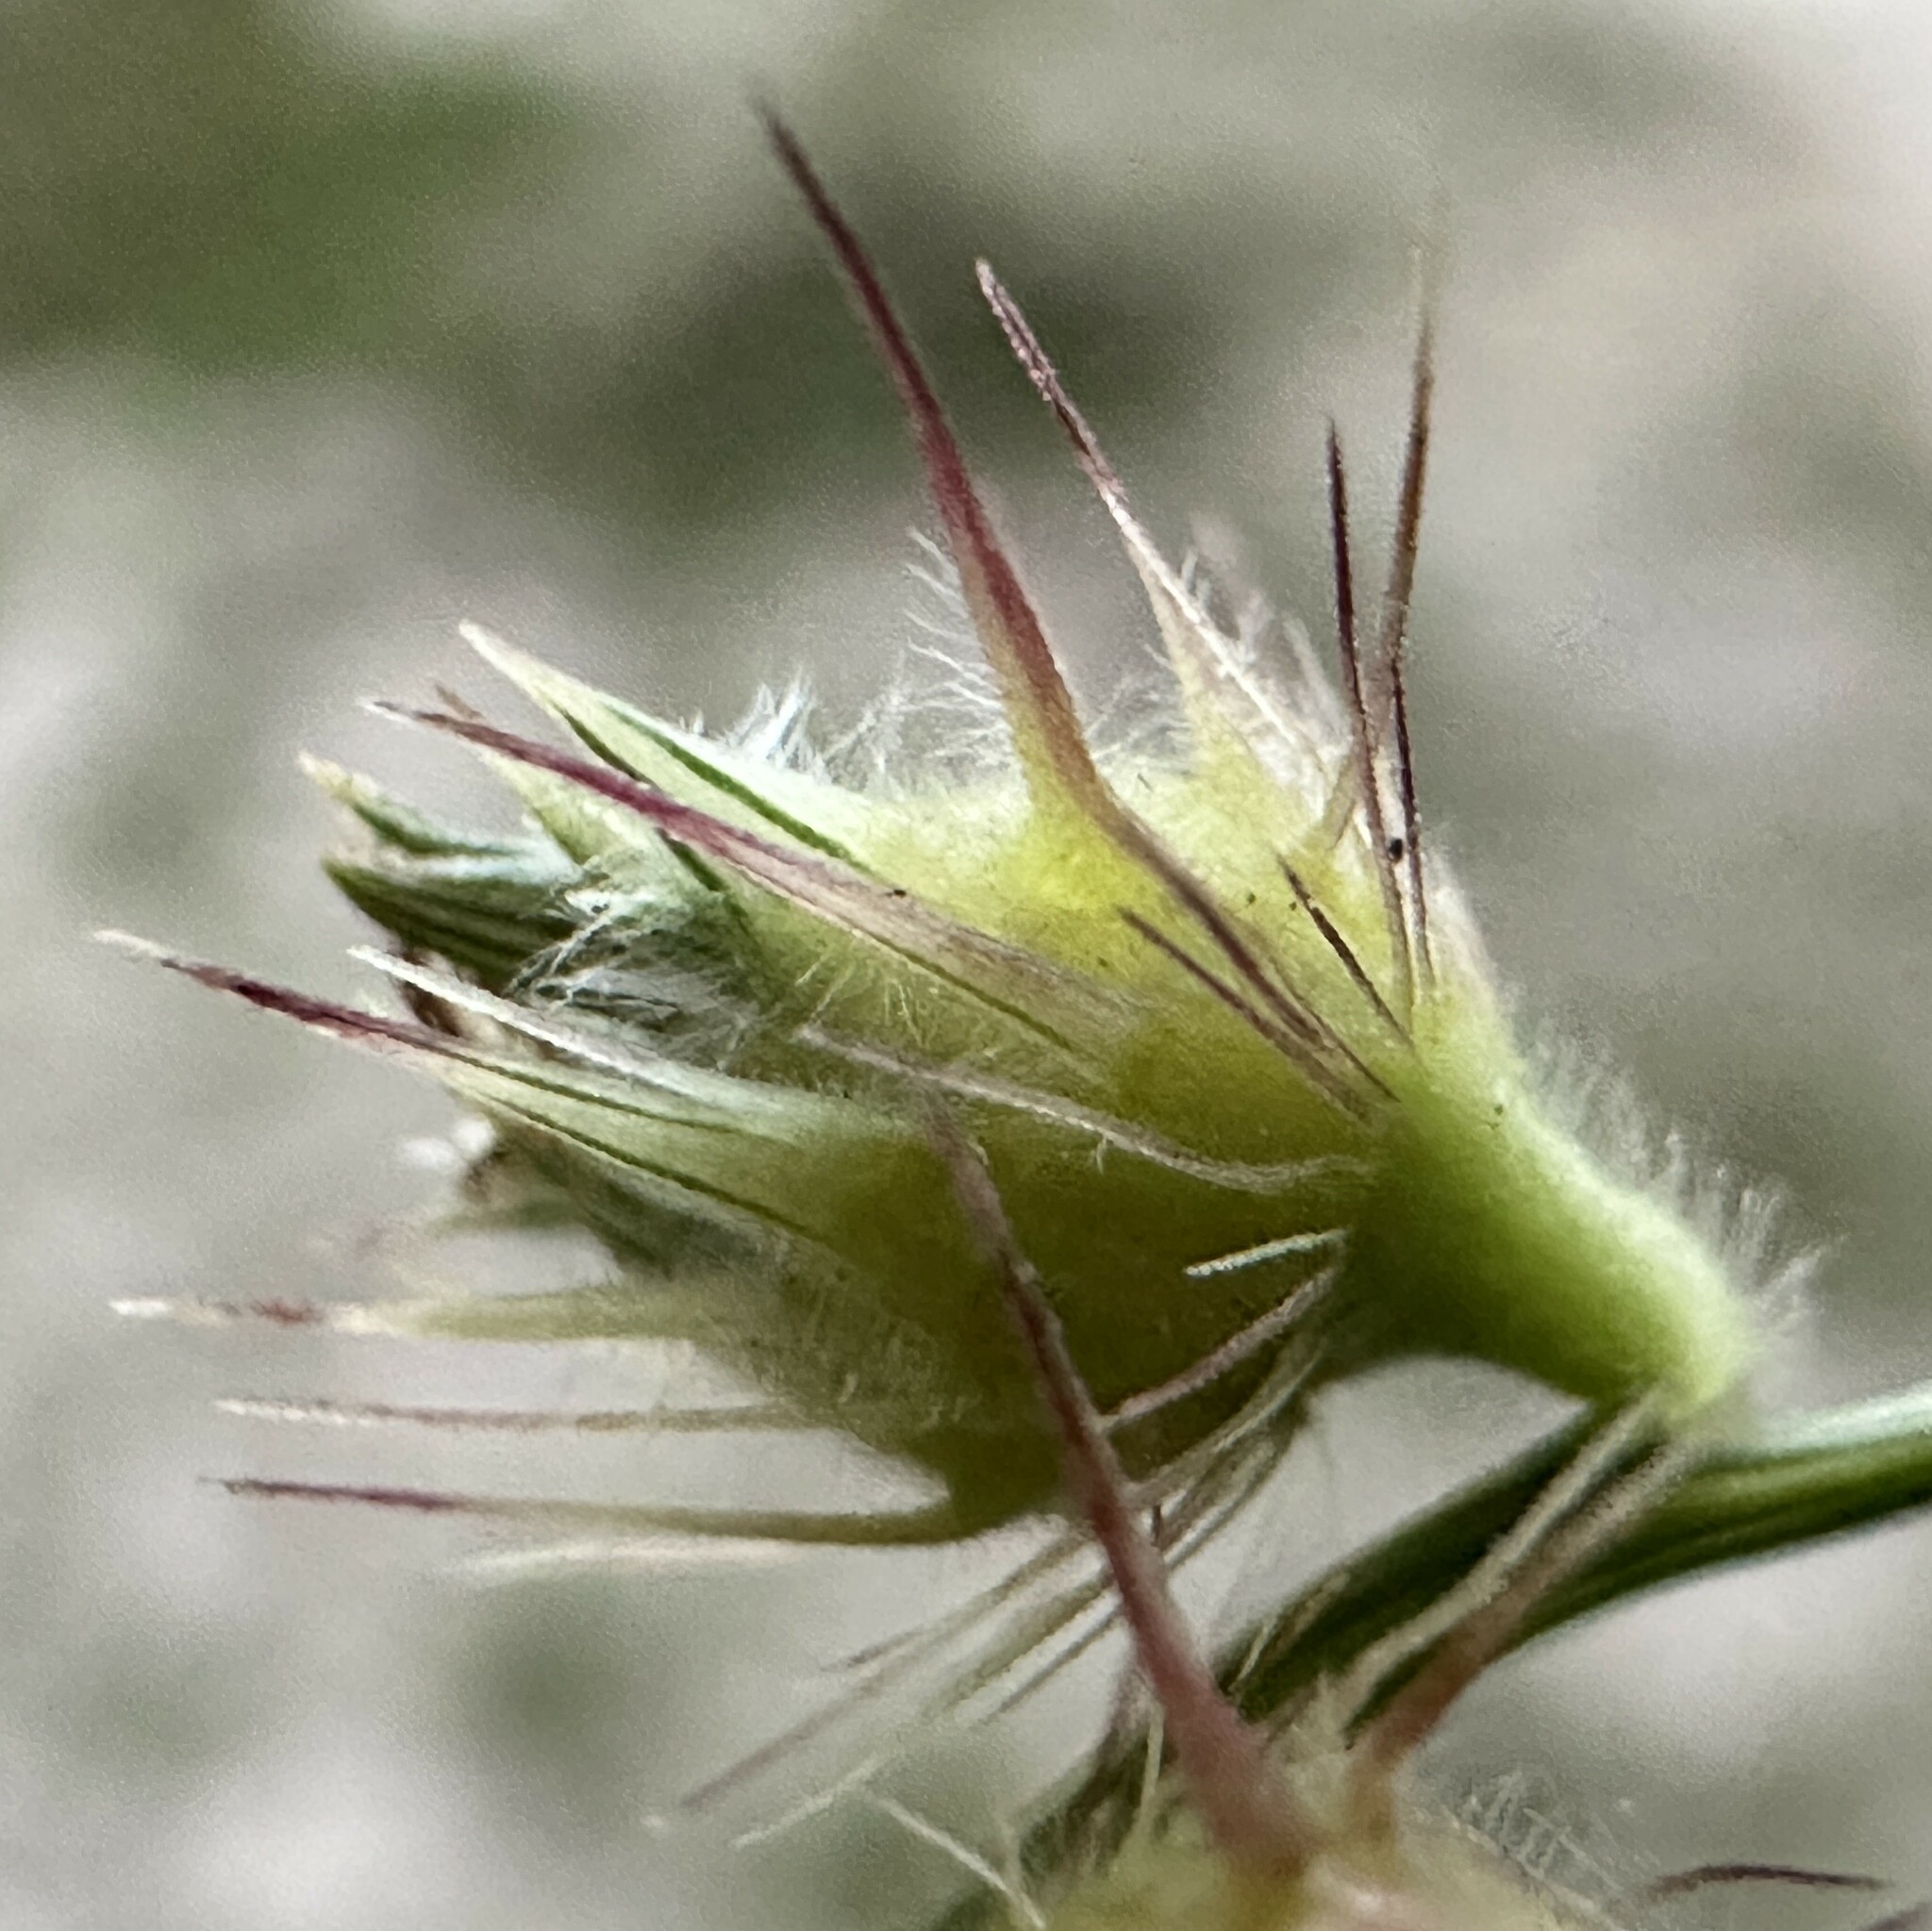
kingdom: Plantae
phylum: Tracheophyta
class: Liliopsida
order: Poales
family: Poaceae
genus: Cenchrus
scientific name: Cenchrus echinatus
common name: Southern sandbur
